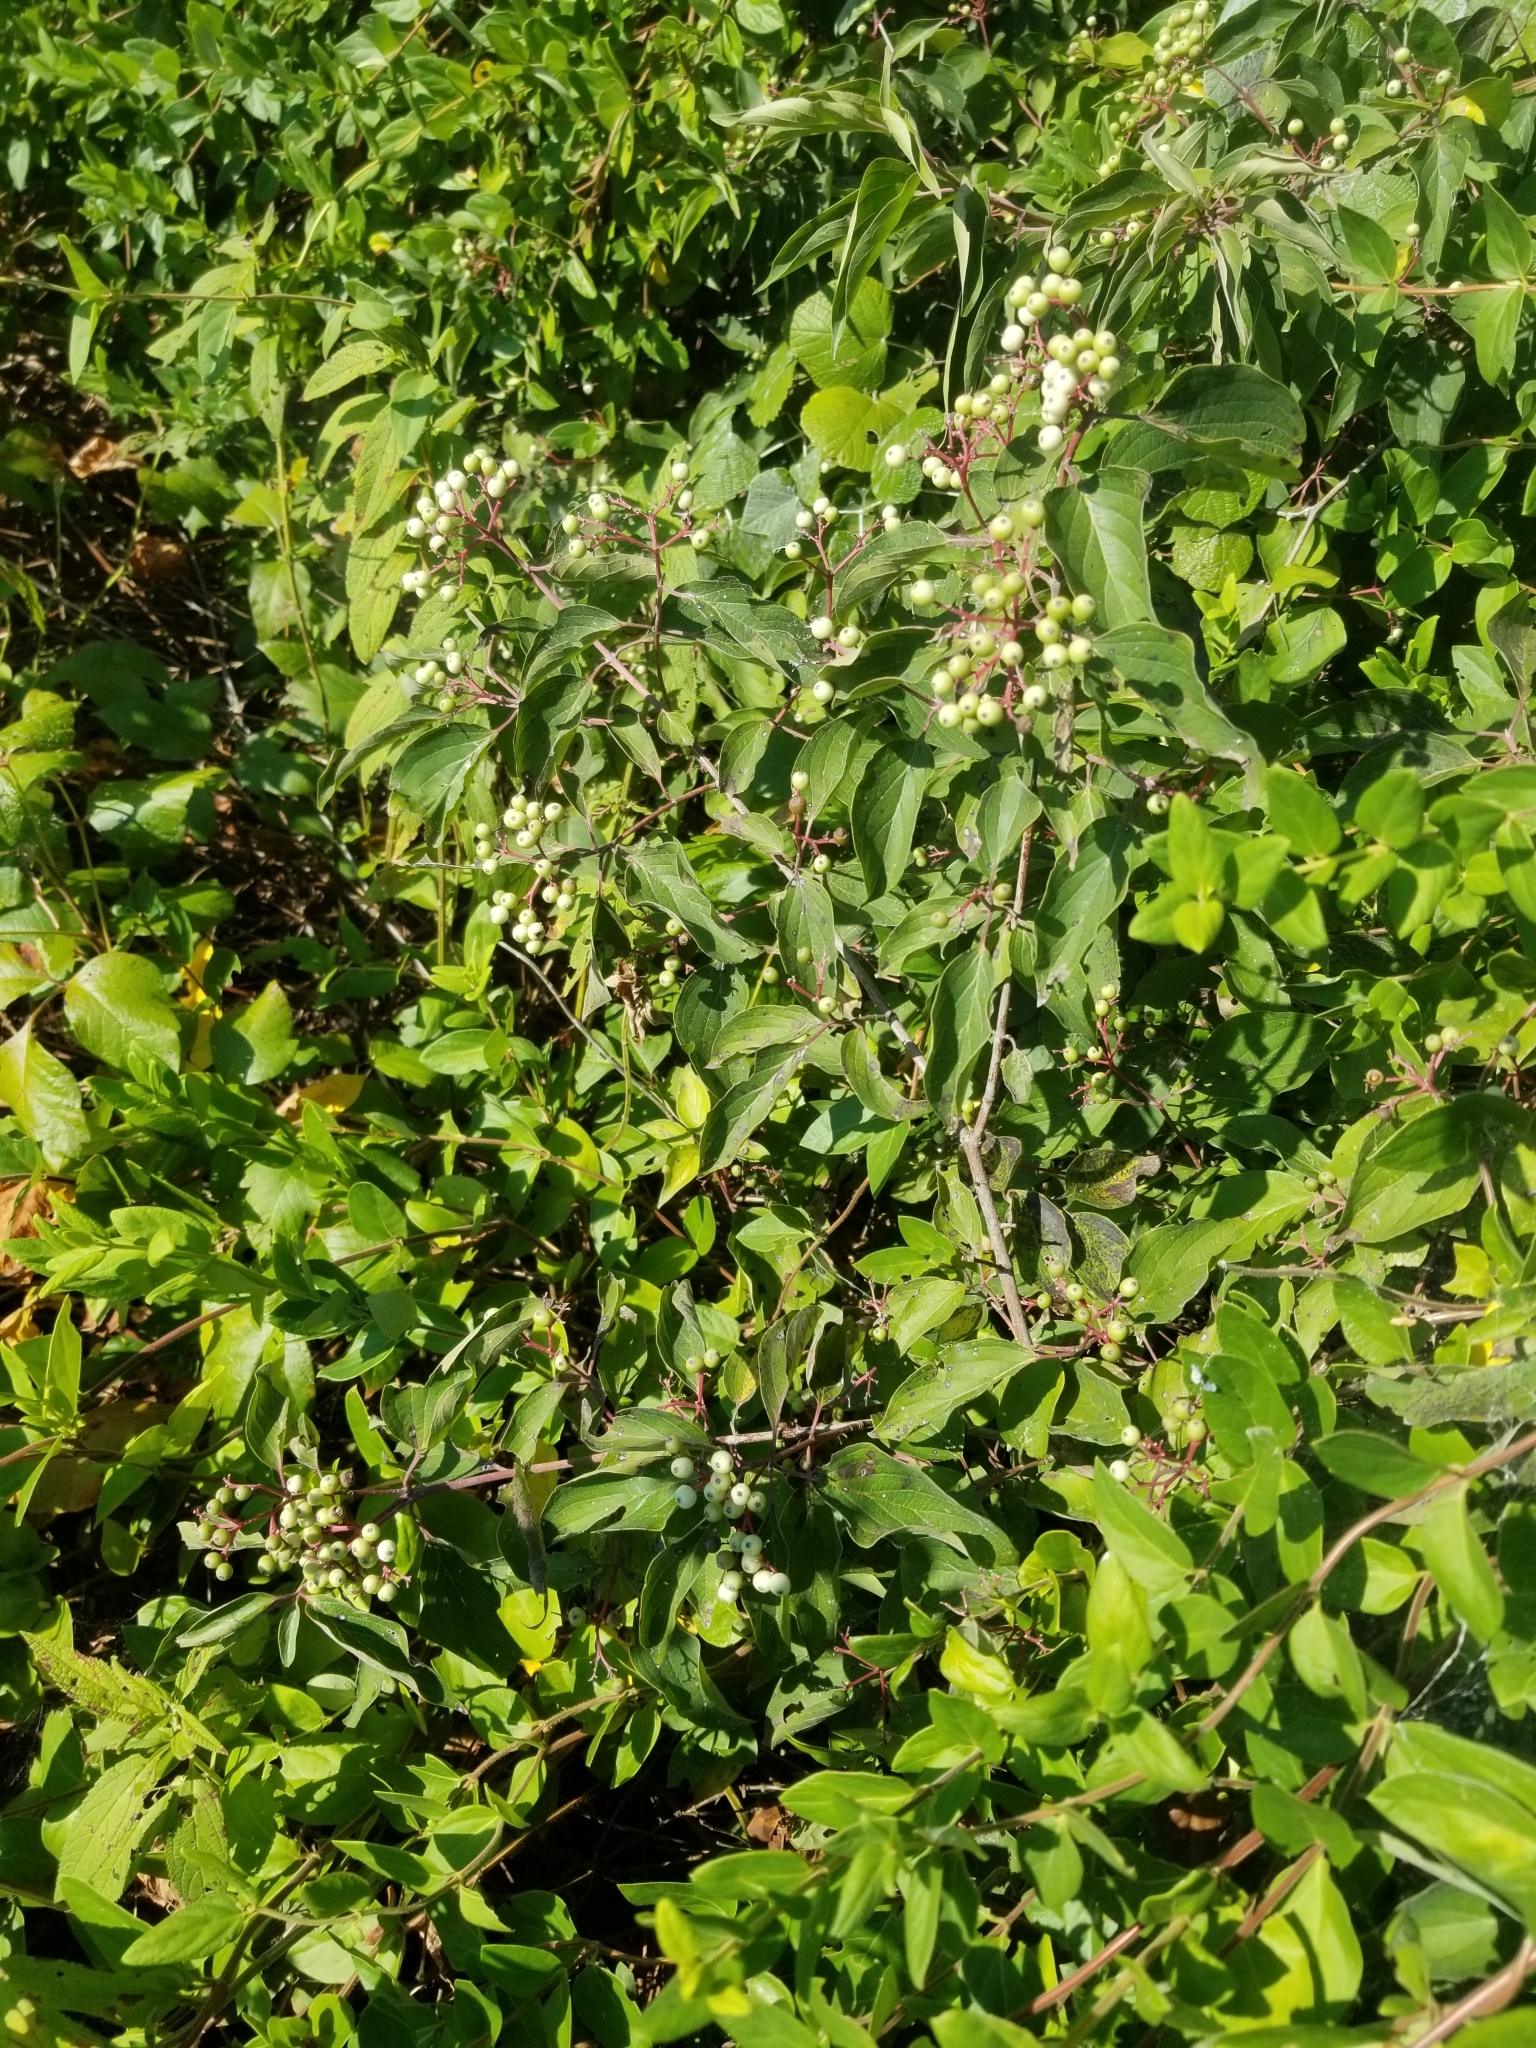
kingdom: Plantae
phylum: Tracheophyta
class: Magnoliopsida
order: Cornales
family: Cornaceae
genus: Cornus
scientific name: Cornus drummondii
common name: Rough-leaf dogwood
